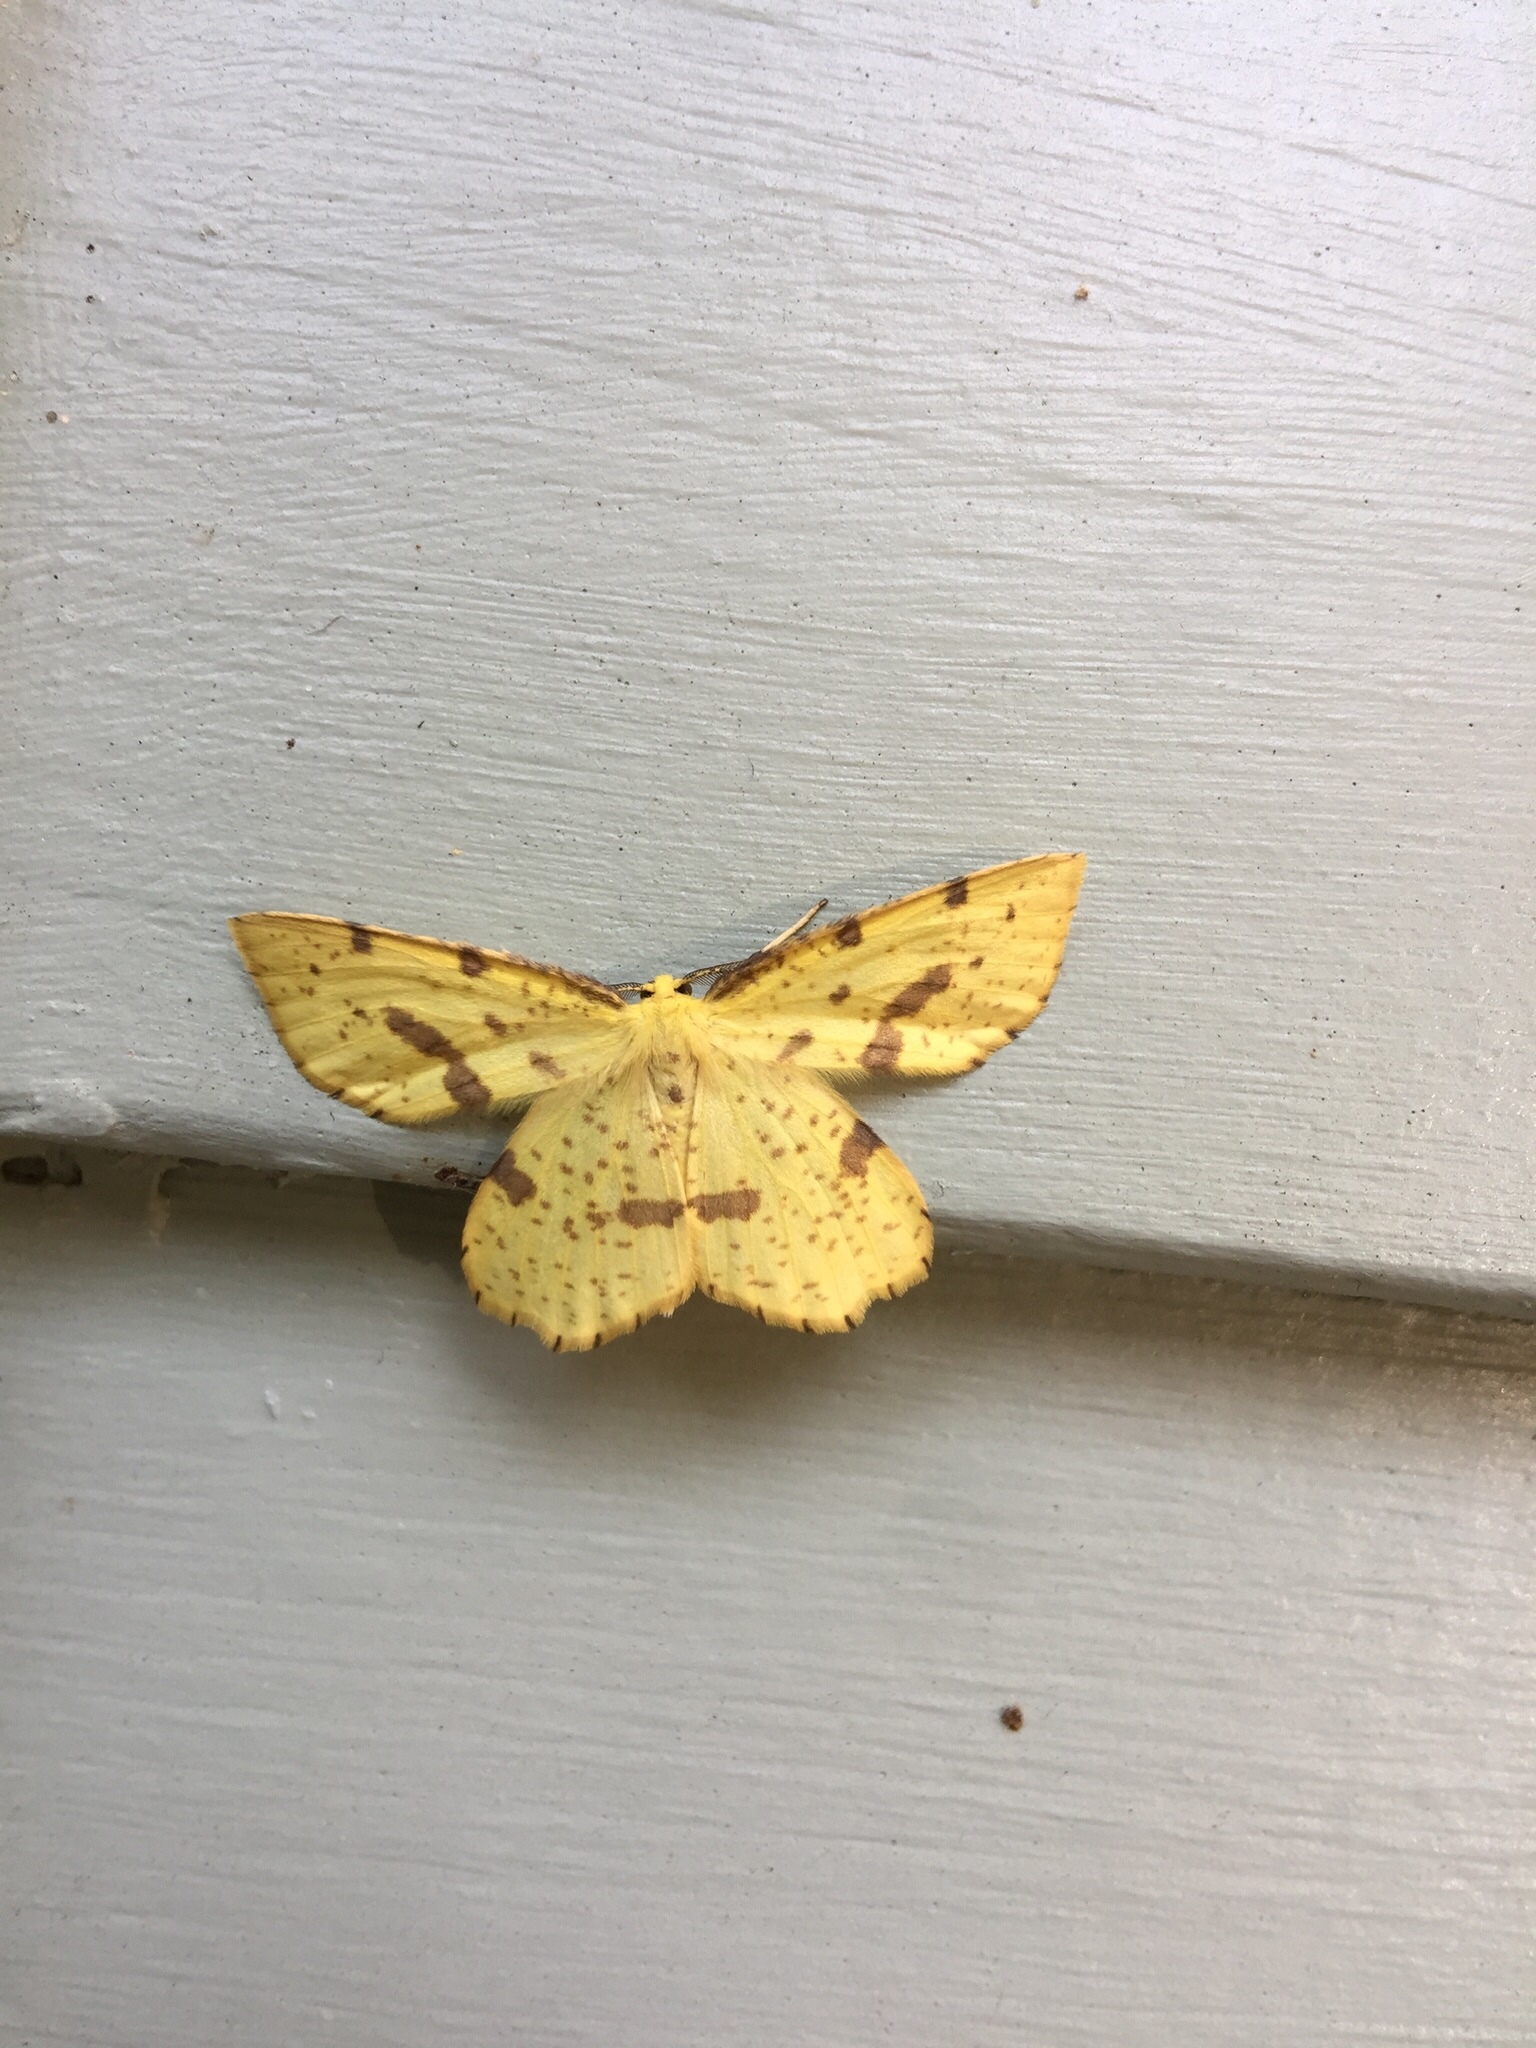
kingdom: Animalia
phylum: Arthropoda
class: Insecta
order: Lepidoptera
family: Geometridae
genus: Xanthotype
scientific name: Xanthotype
